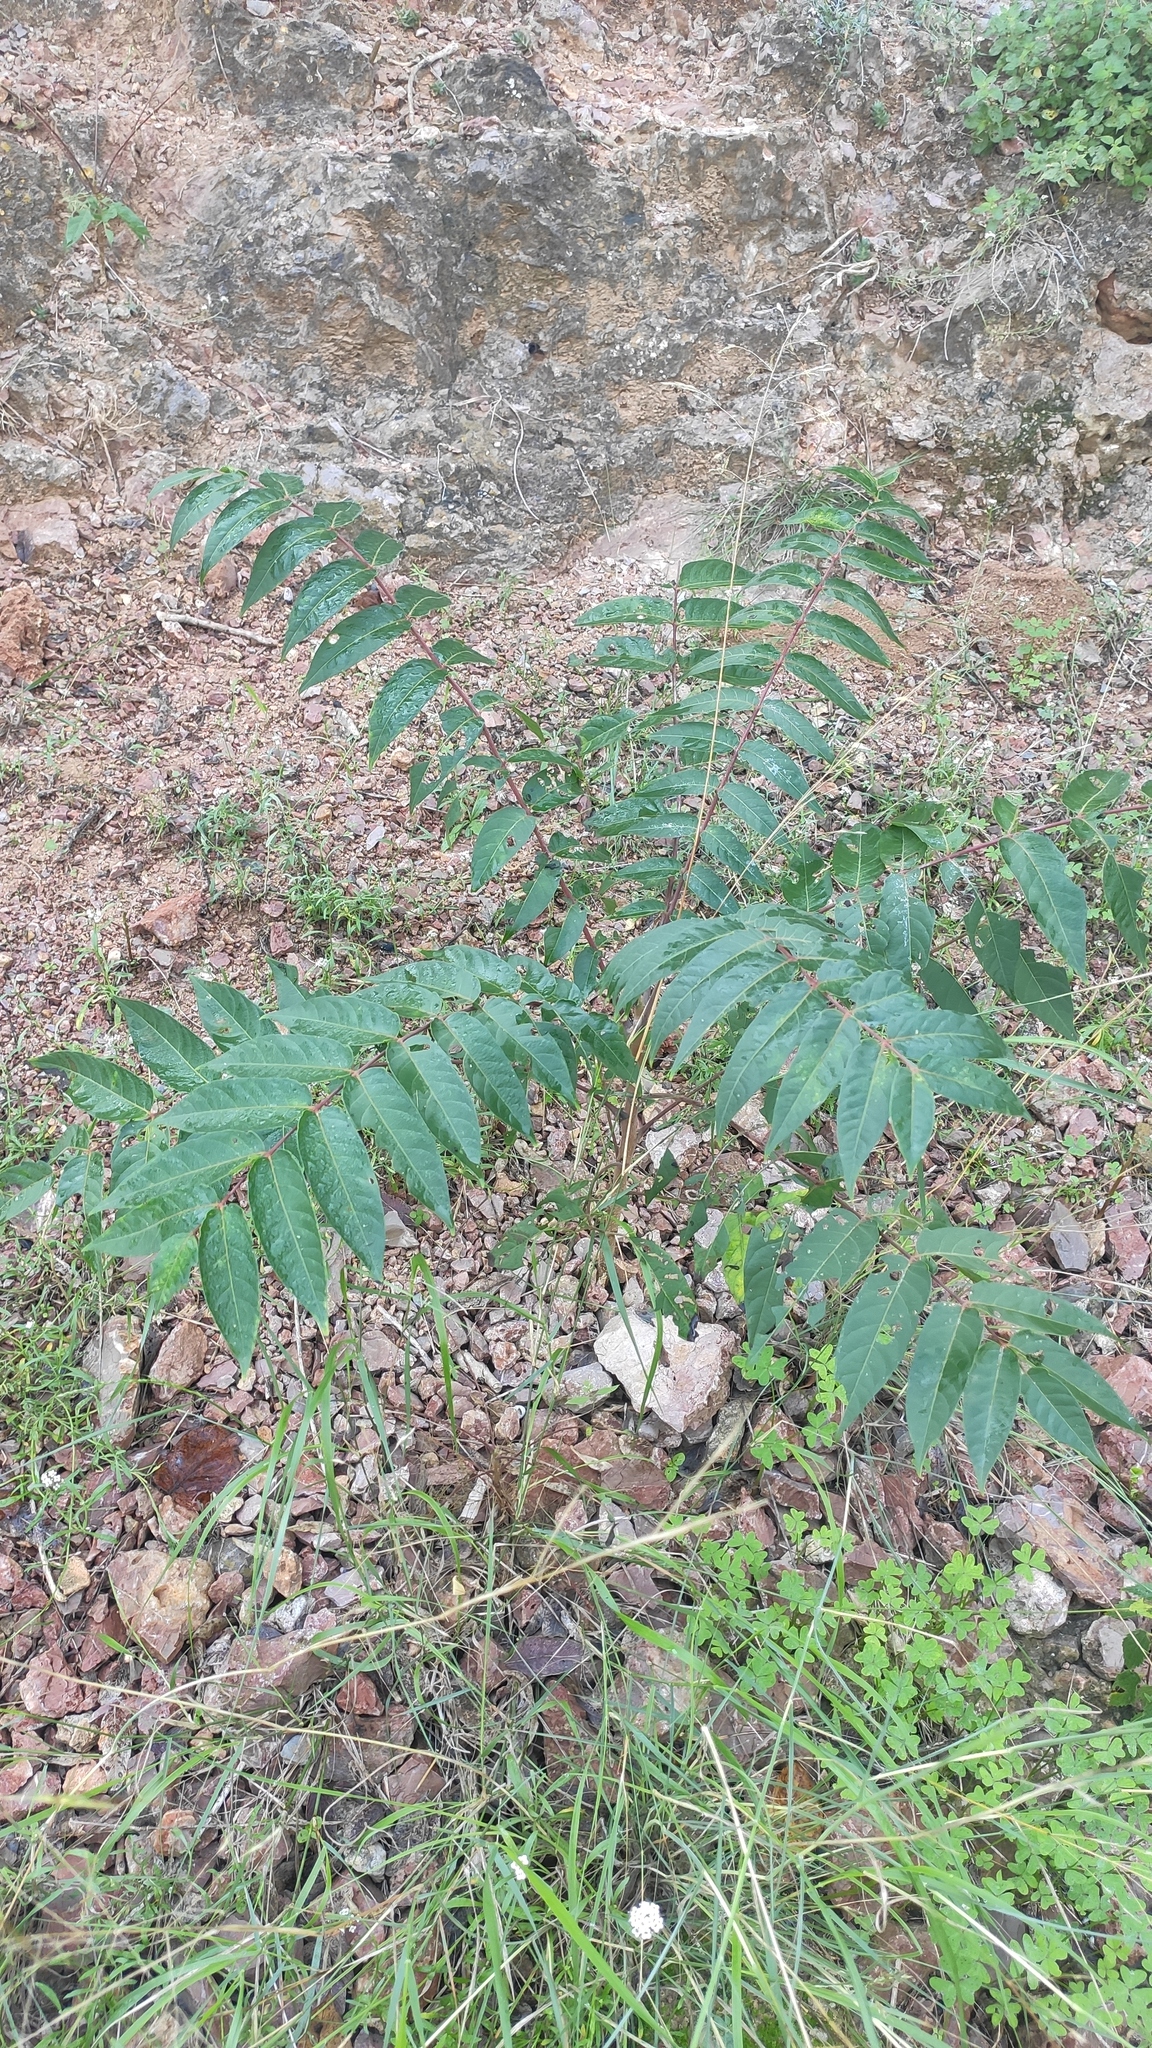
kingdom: Plantae
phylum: Tracheophyta
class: Magnoliopsida
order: Sapindales
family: Simaroubaceae
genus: Ailanthus
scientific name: Ailanthus altissima
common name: Tree-of-heaven
